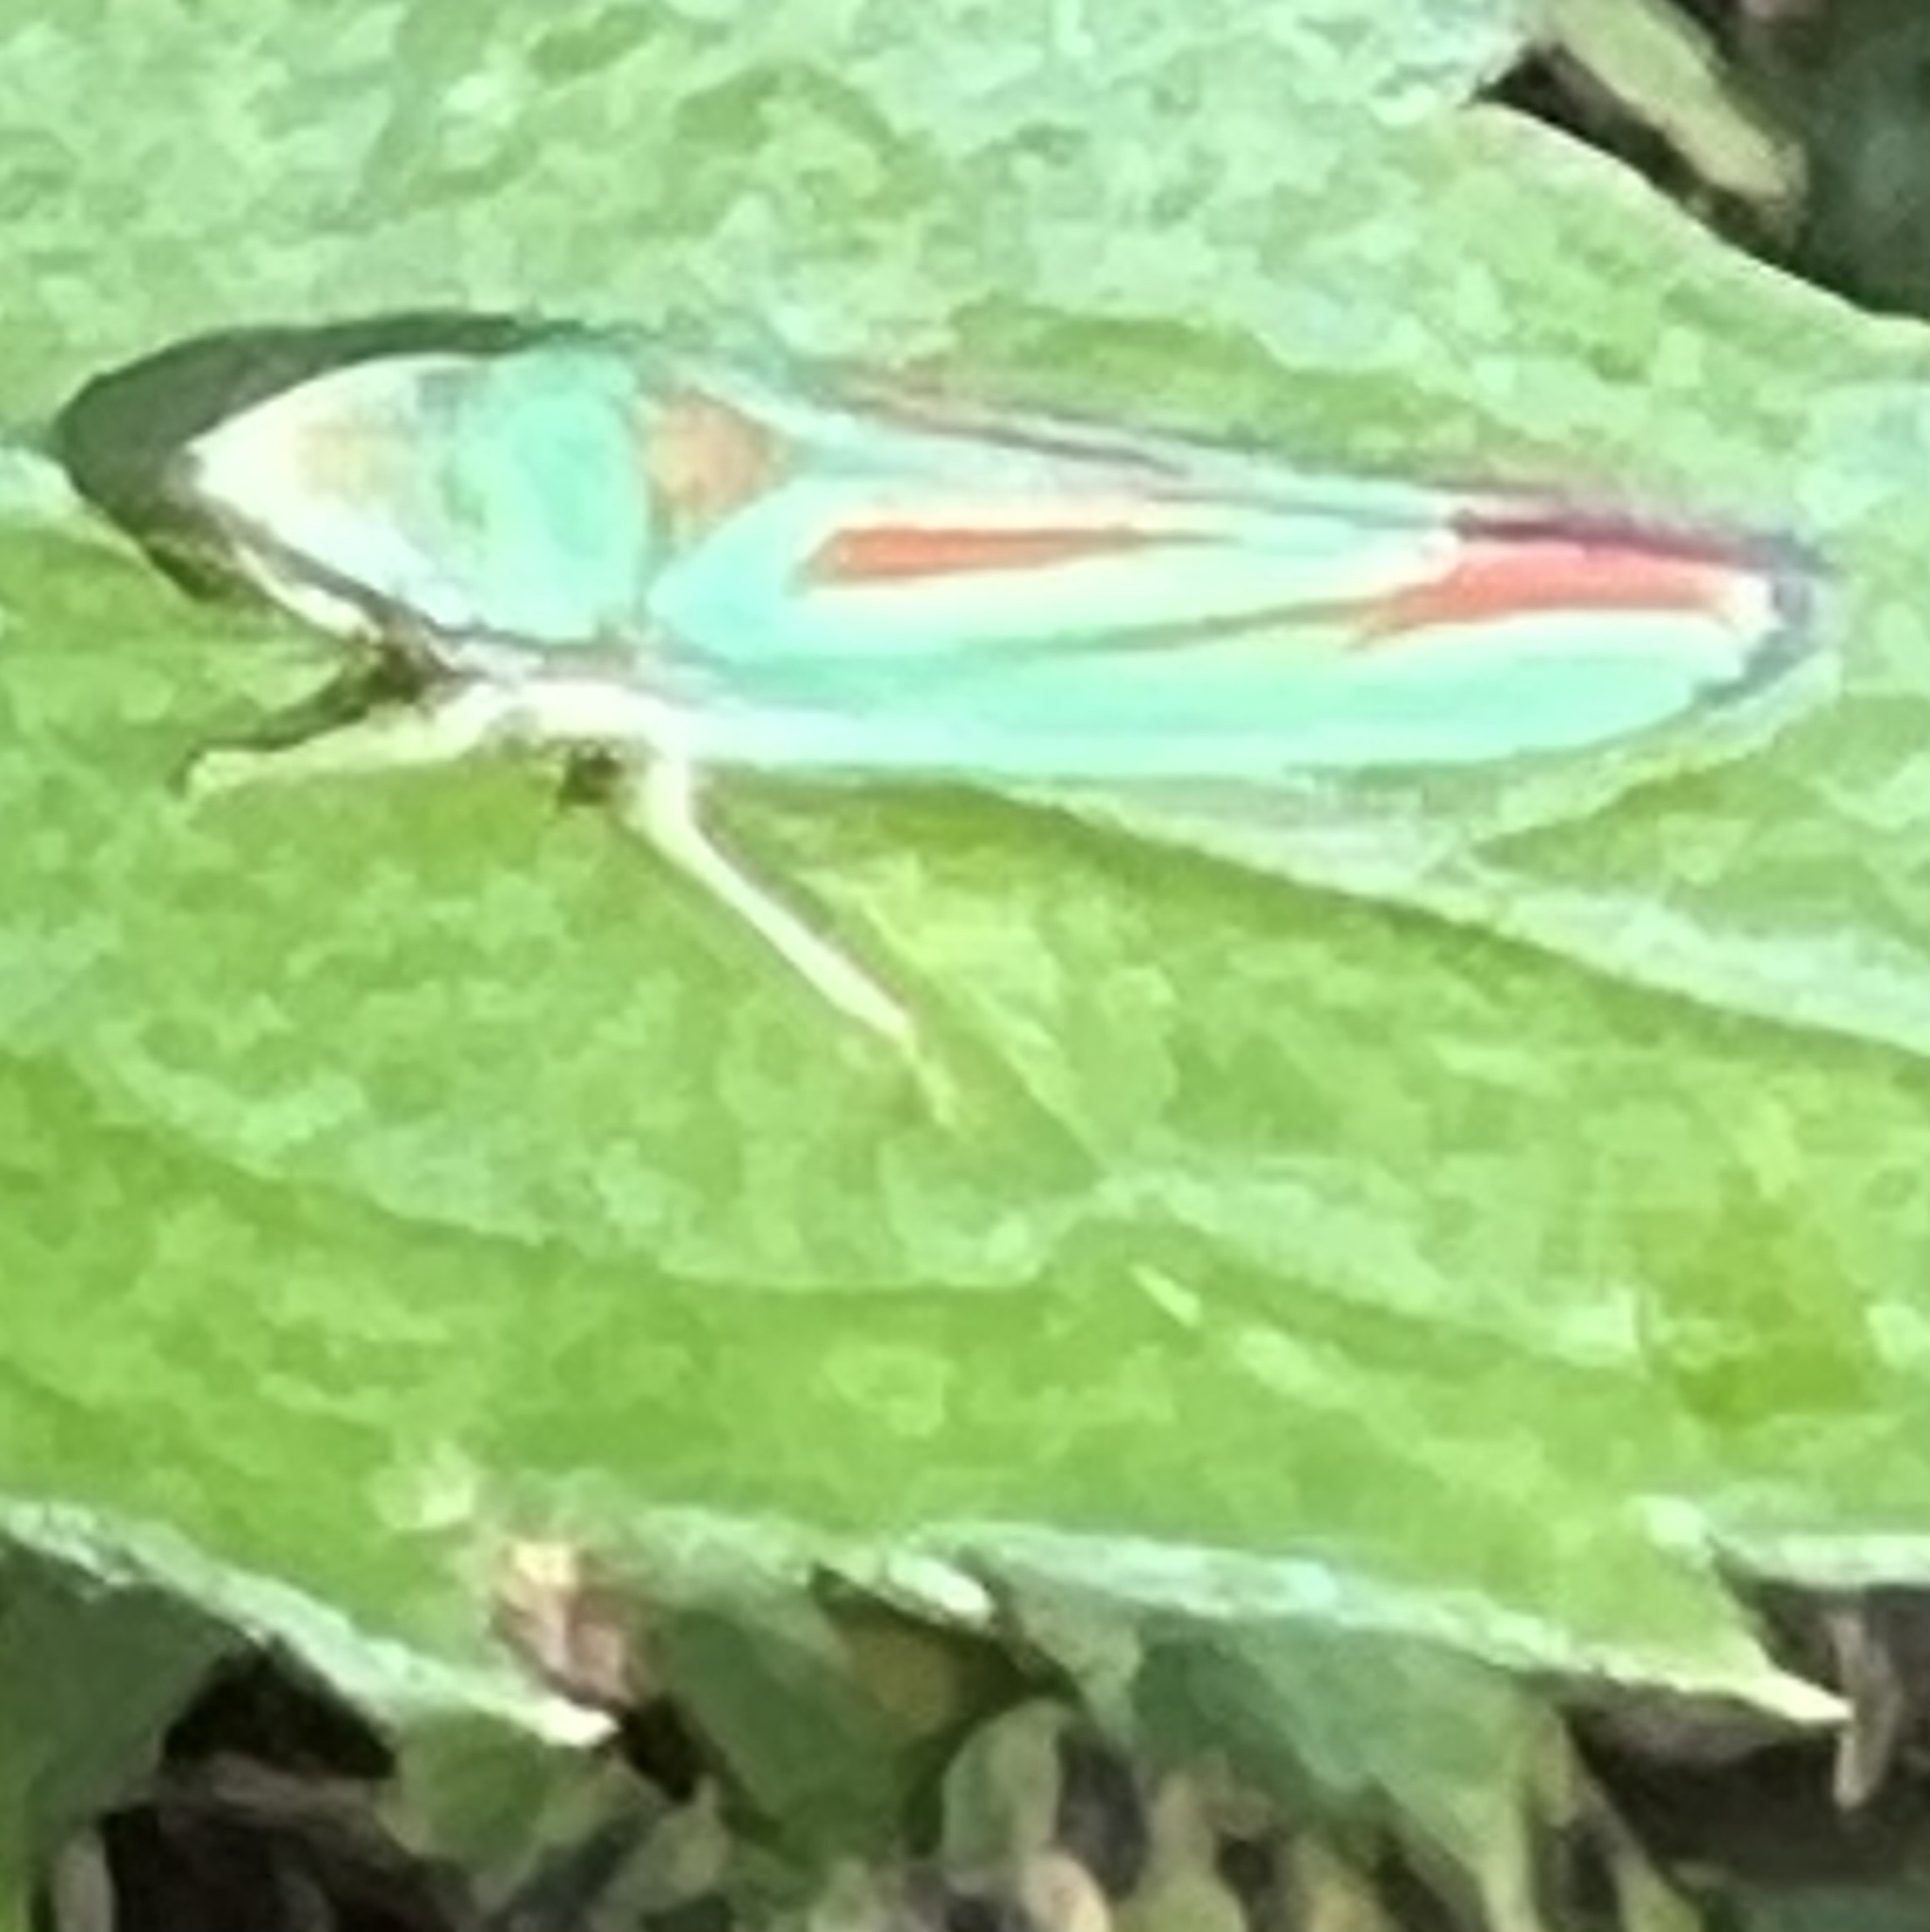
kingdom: Animalia
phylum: Arthropoda
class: Insecta
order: Hemiptera
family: Cicadellidae
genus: Graphocephala
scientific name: Graphocephala fennahi
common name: Rhododendron leafhopper
